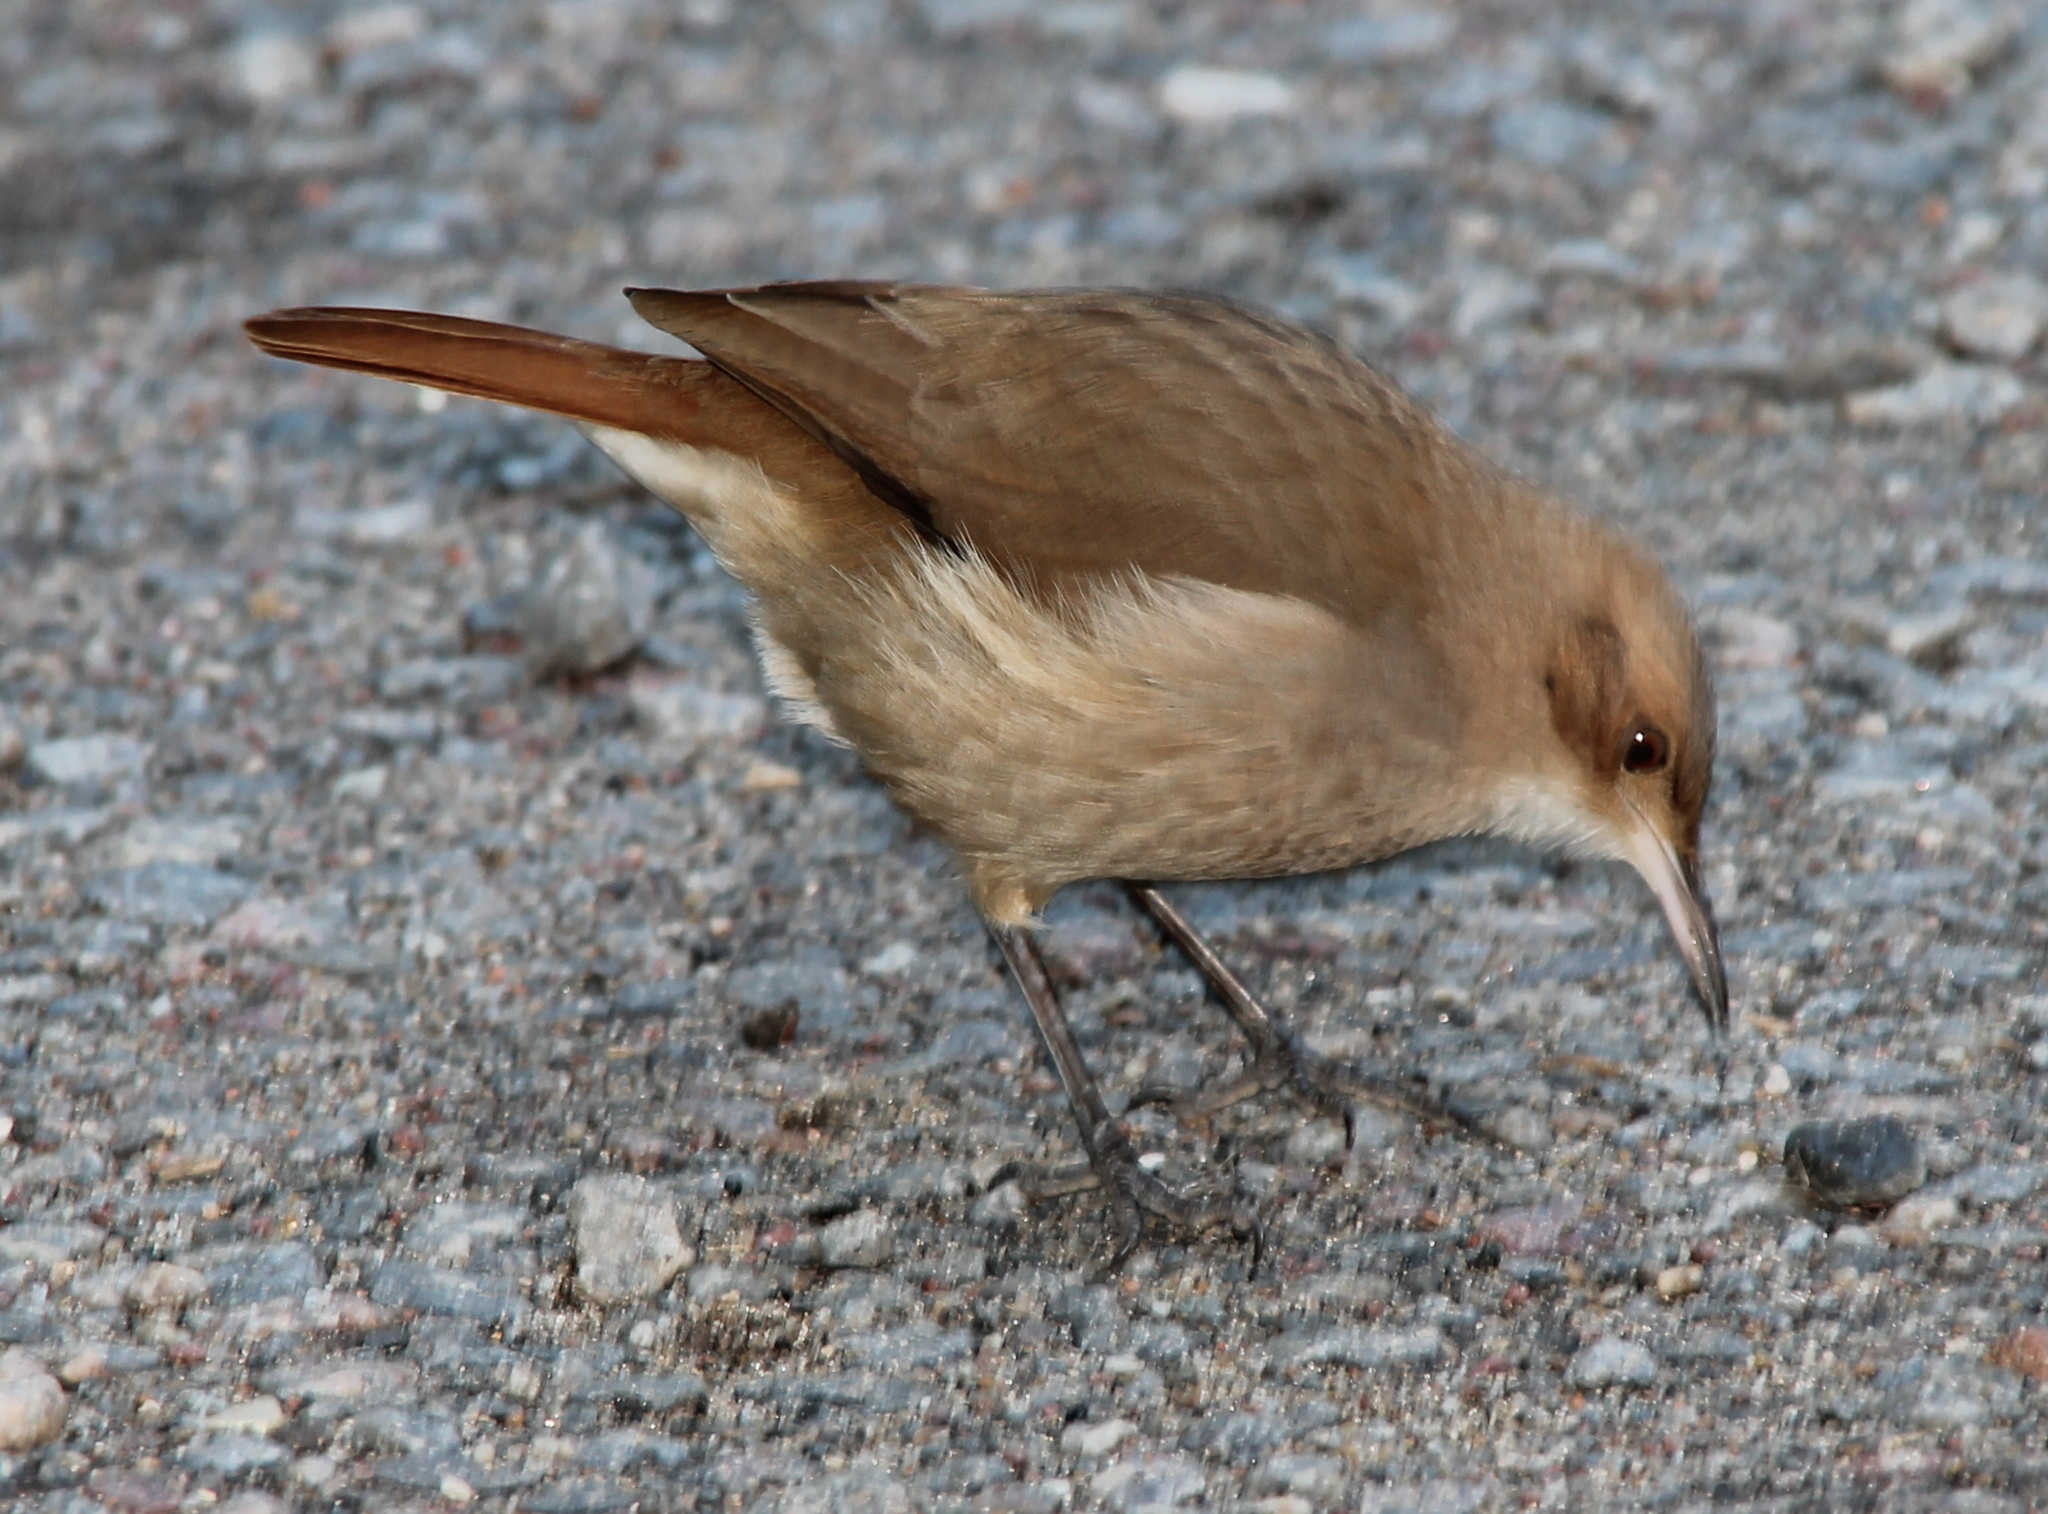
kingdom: Animalia
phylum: Chordata
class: Aves
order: Passeriformes
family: Furnariidae
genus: Furnarius
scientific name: Furnarius rufus
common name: Rufous hornero
